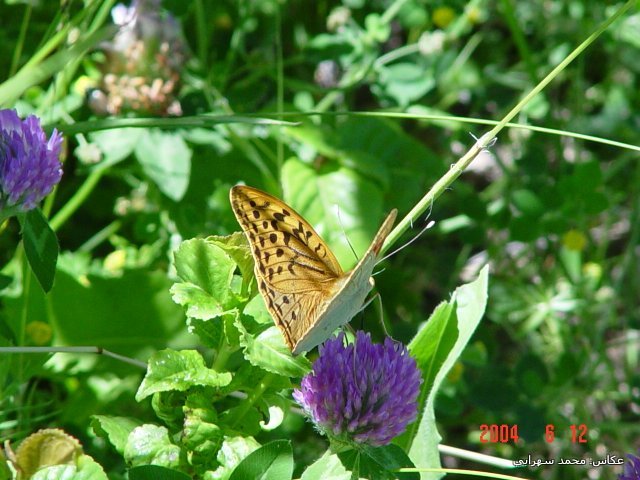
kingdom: Animalia
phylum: Arthropoda
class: Insecta
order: Lepidoptera
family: Nymphalidae
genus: Damora
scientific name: Damora pandora
